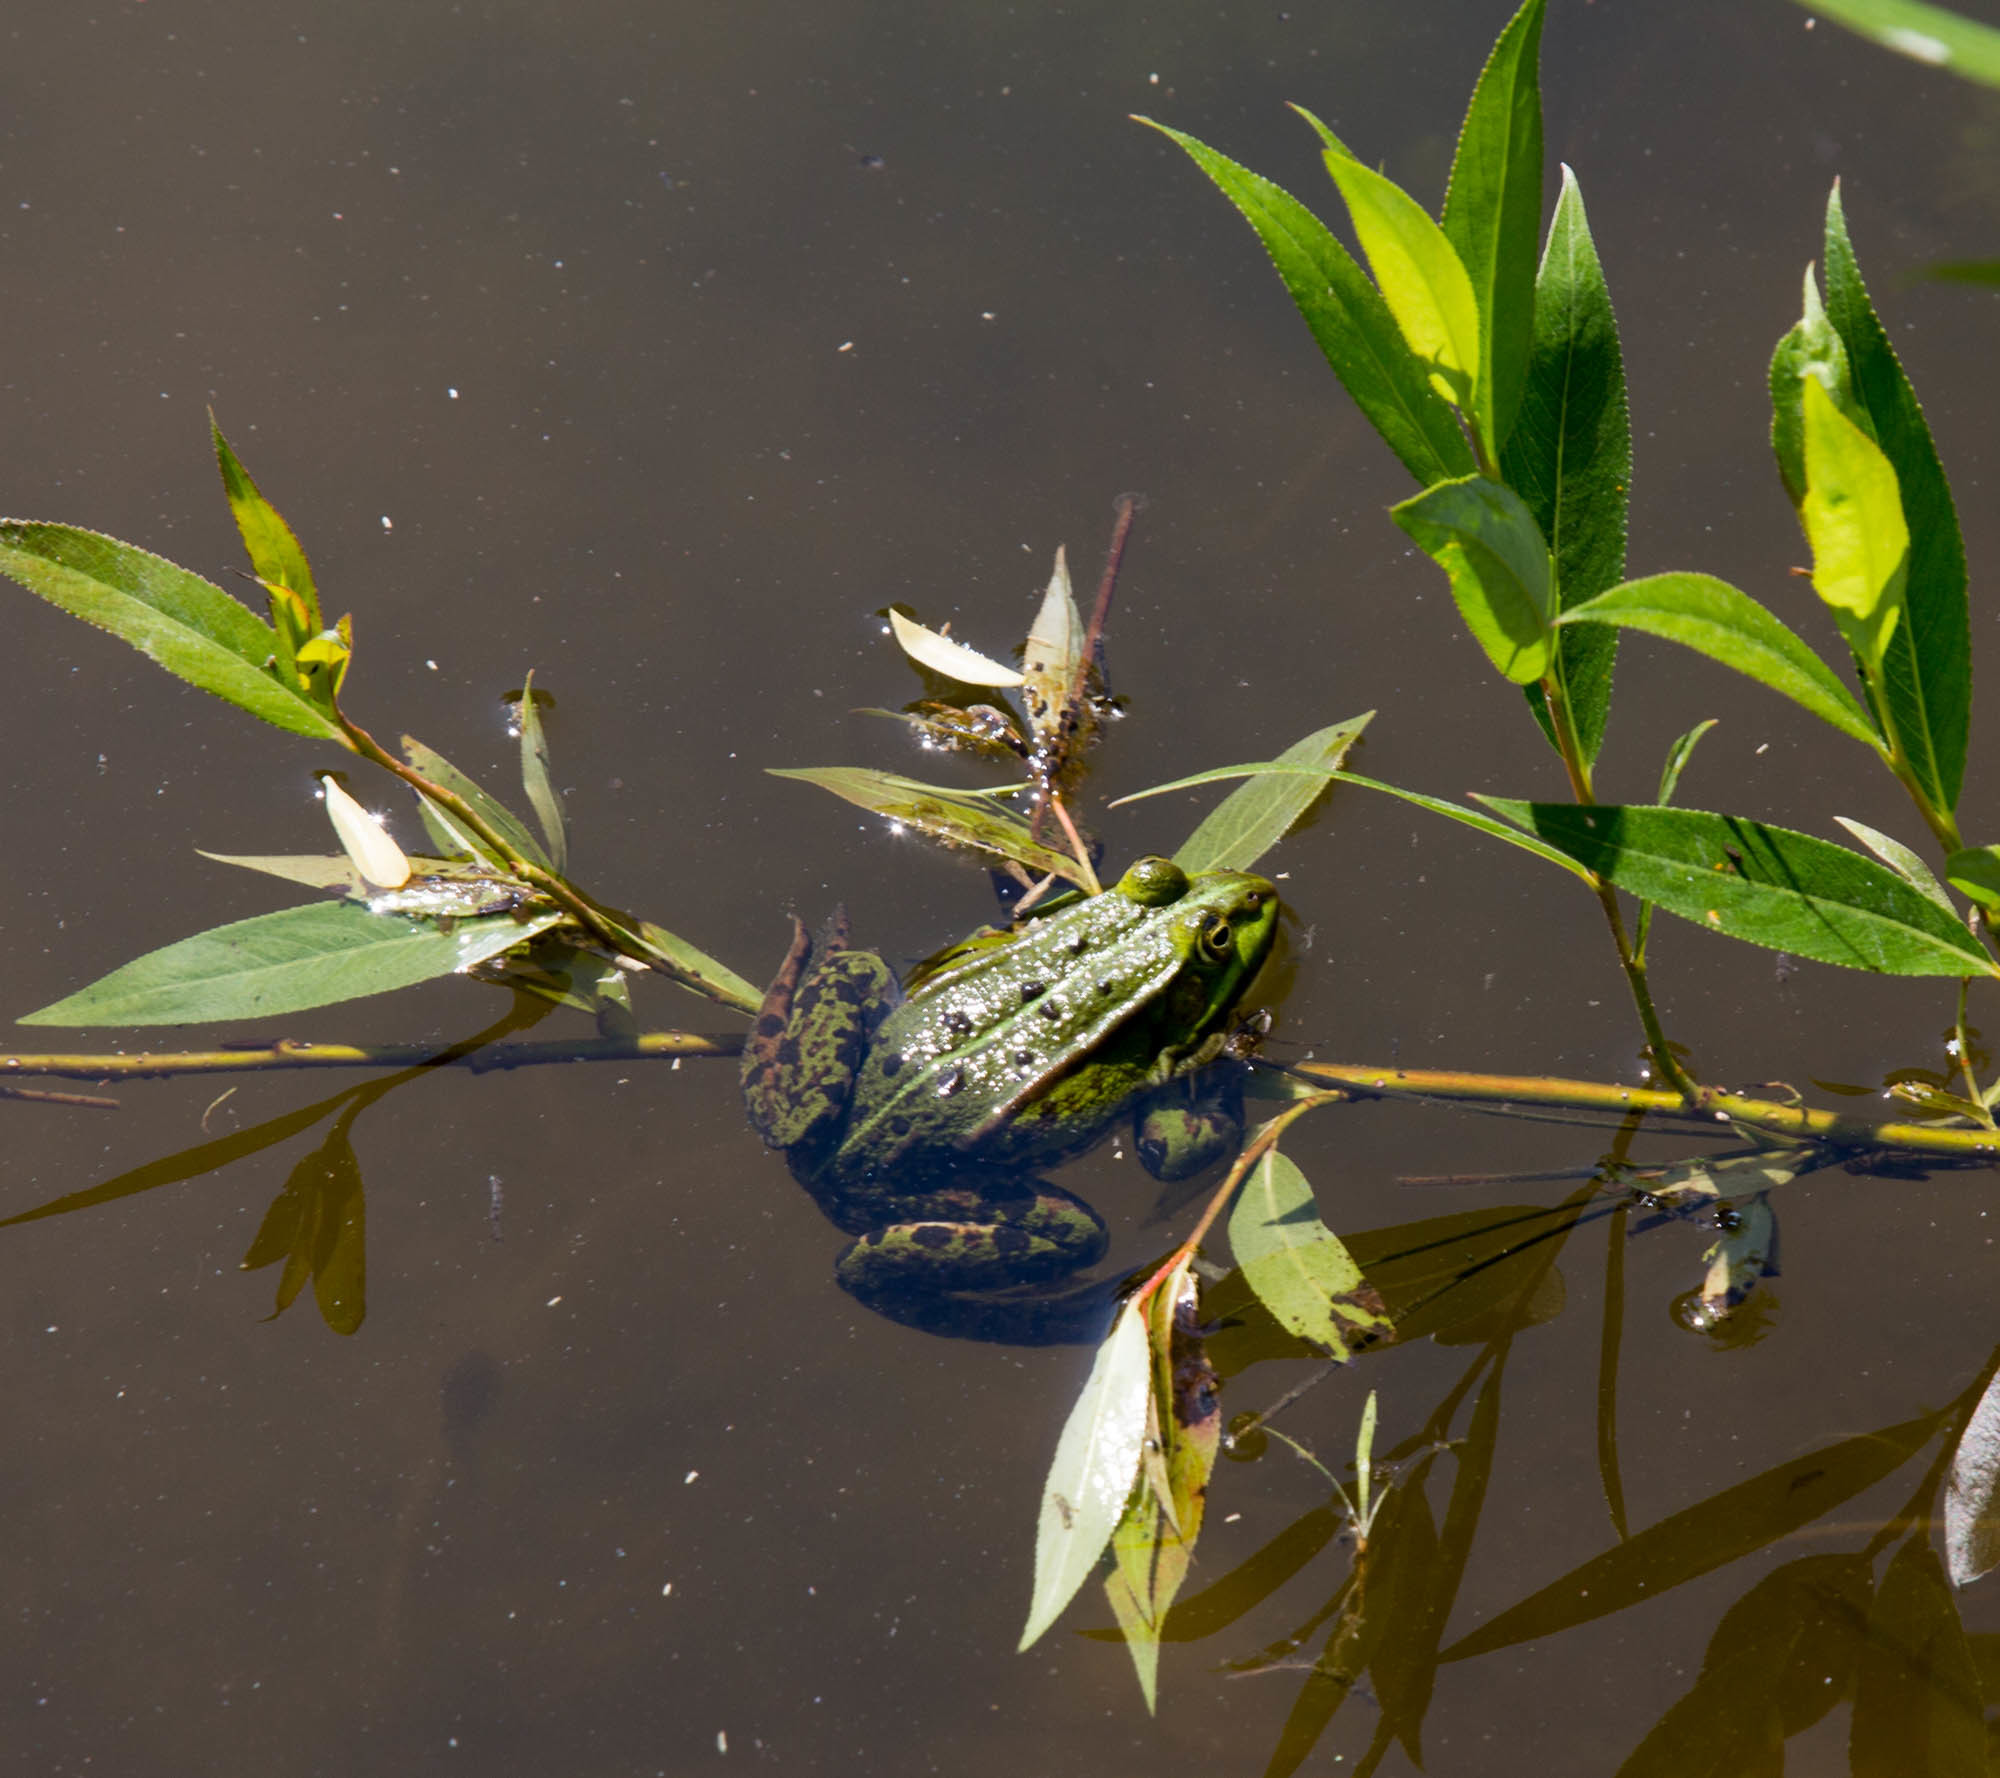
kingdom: Animalia
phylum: Chordata
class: Amphibia
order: Anura
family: Ranidae
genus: Pelophylax
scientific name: Pelophylax lessonae
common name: Pool frog
